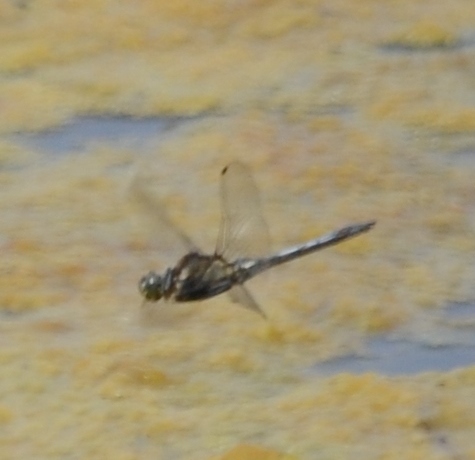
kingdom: Animalia
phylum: Arthropoda
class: Insecta
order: Odonata
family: Libellulidae
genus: Orthetrum
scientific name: Orthetrum cancellatum
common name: Black-tailed skimmer
